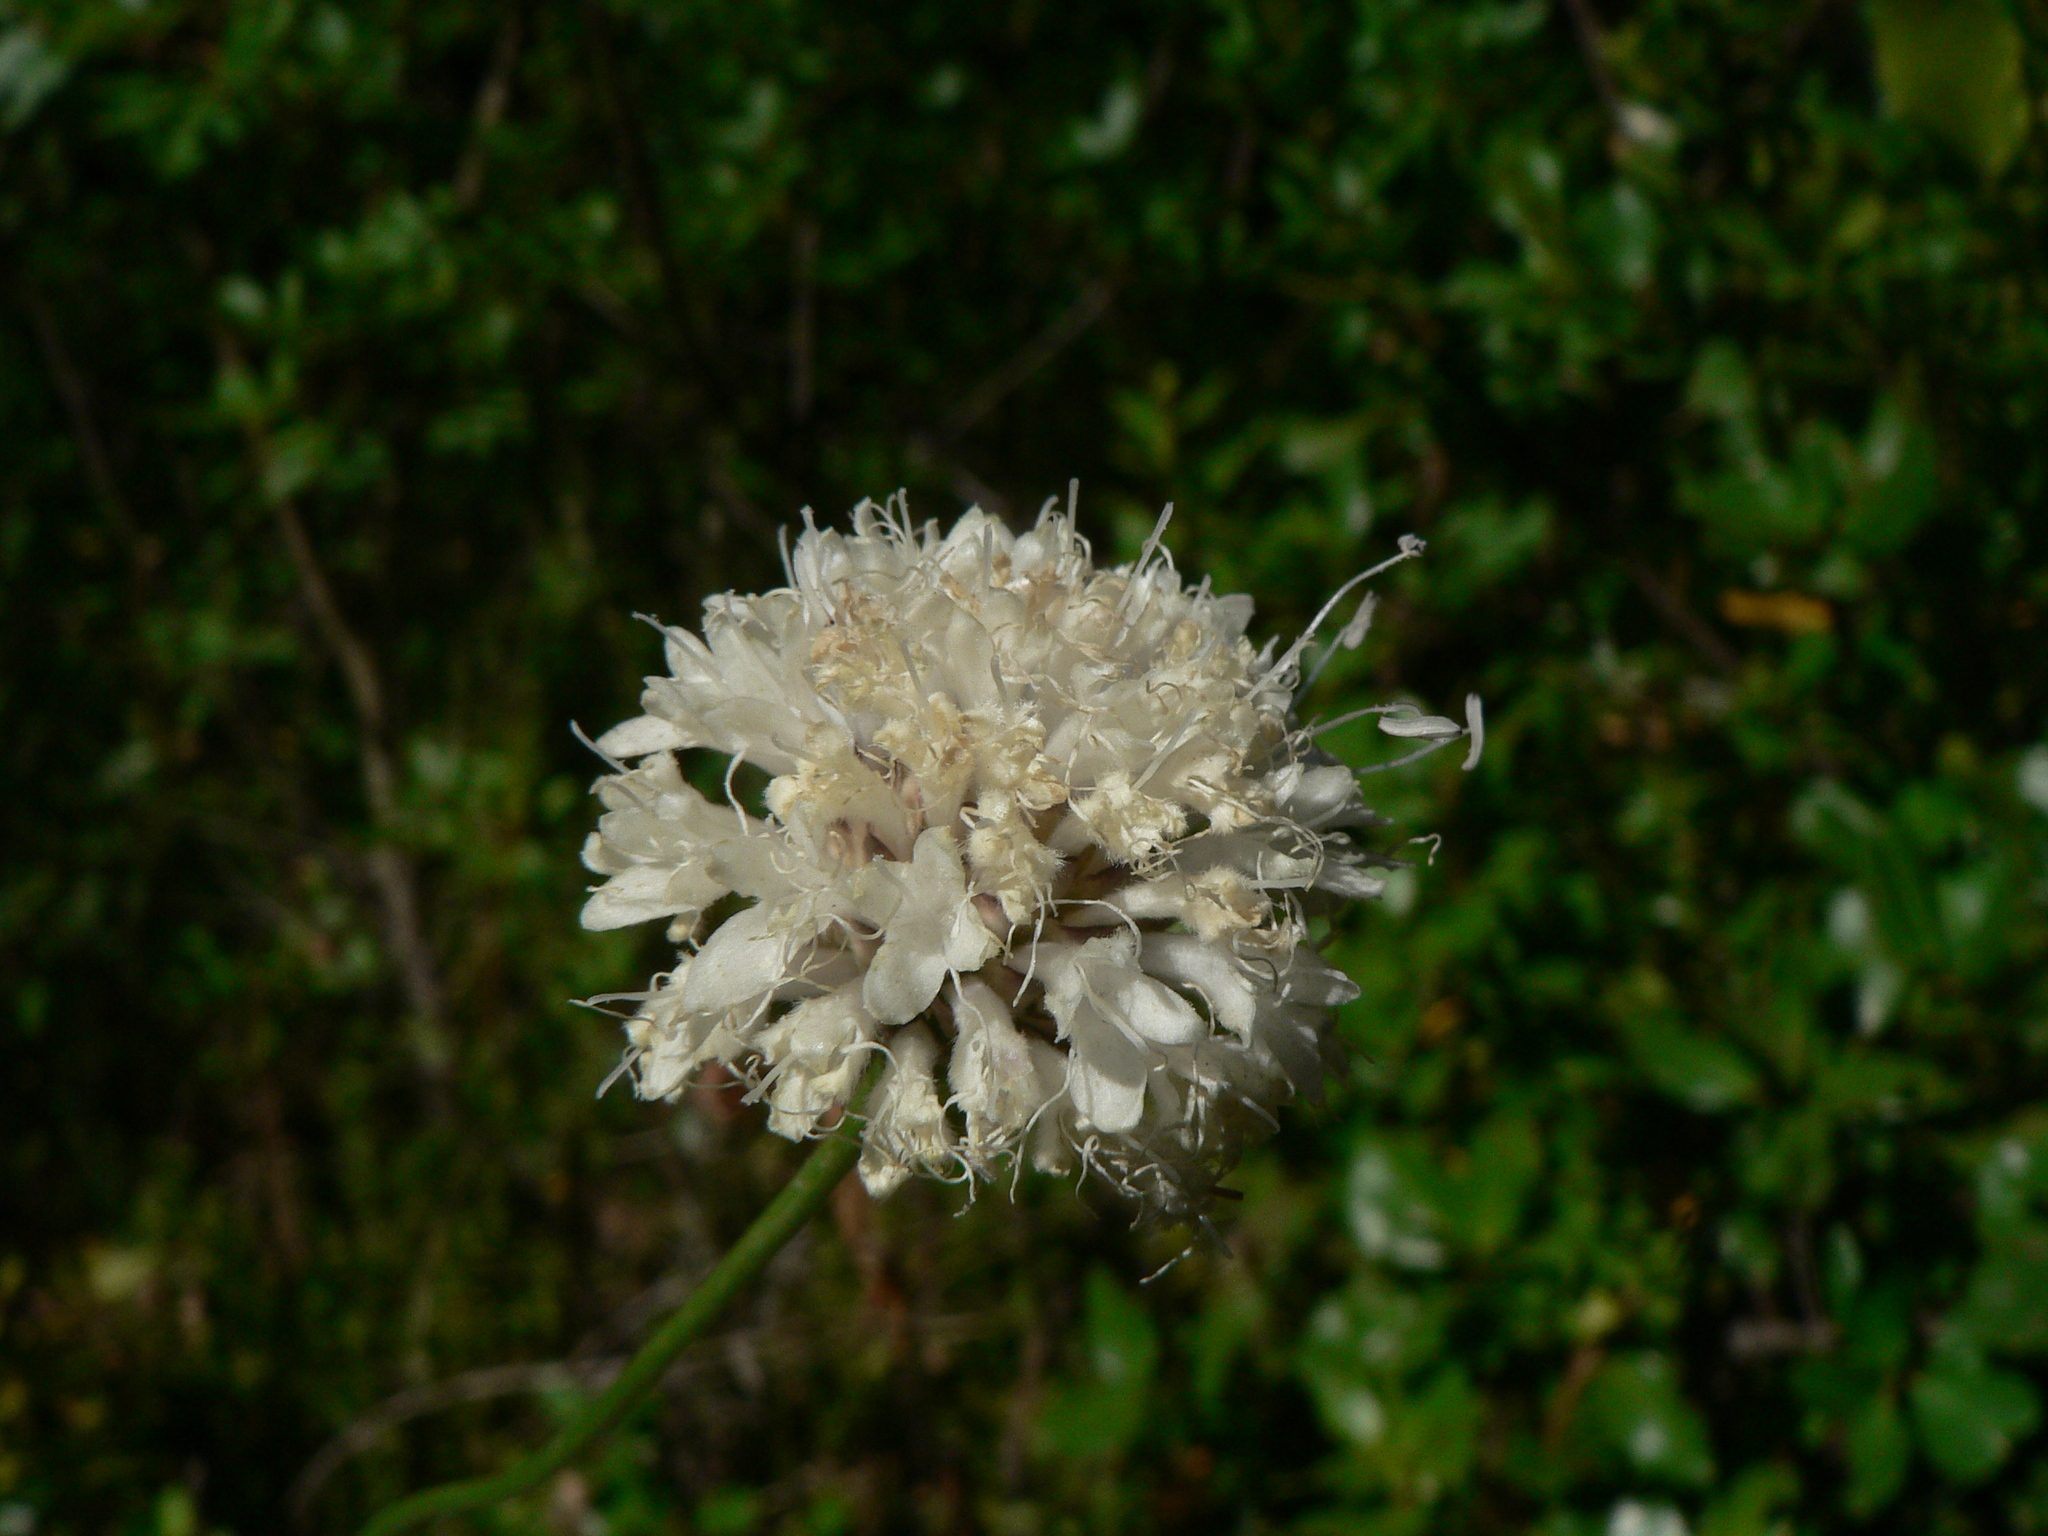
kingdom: Plantae
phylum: Tracheophyta
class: Magnoliopsida
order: Dipsacales
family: Caprifoliaceae
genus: Cephalaria
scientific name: Cephalaria leucantha
